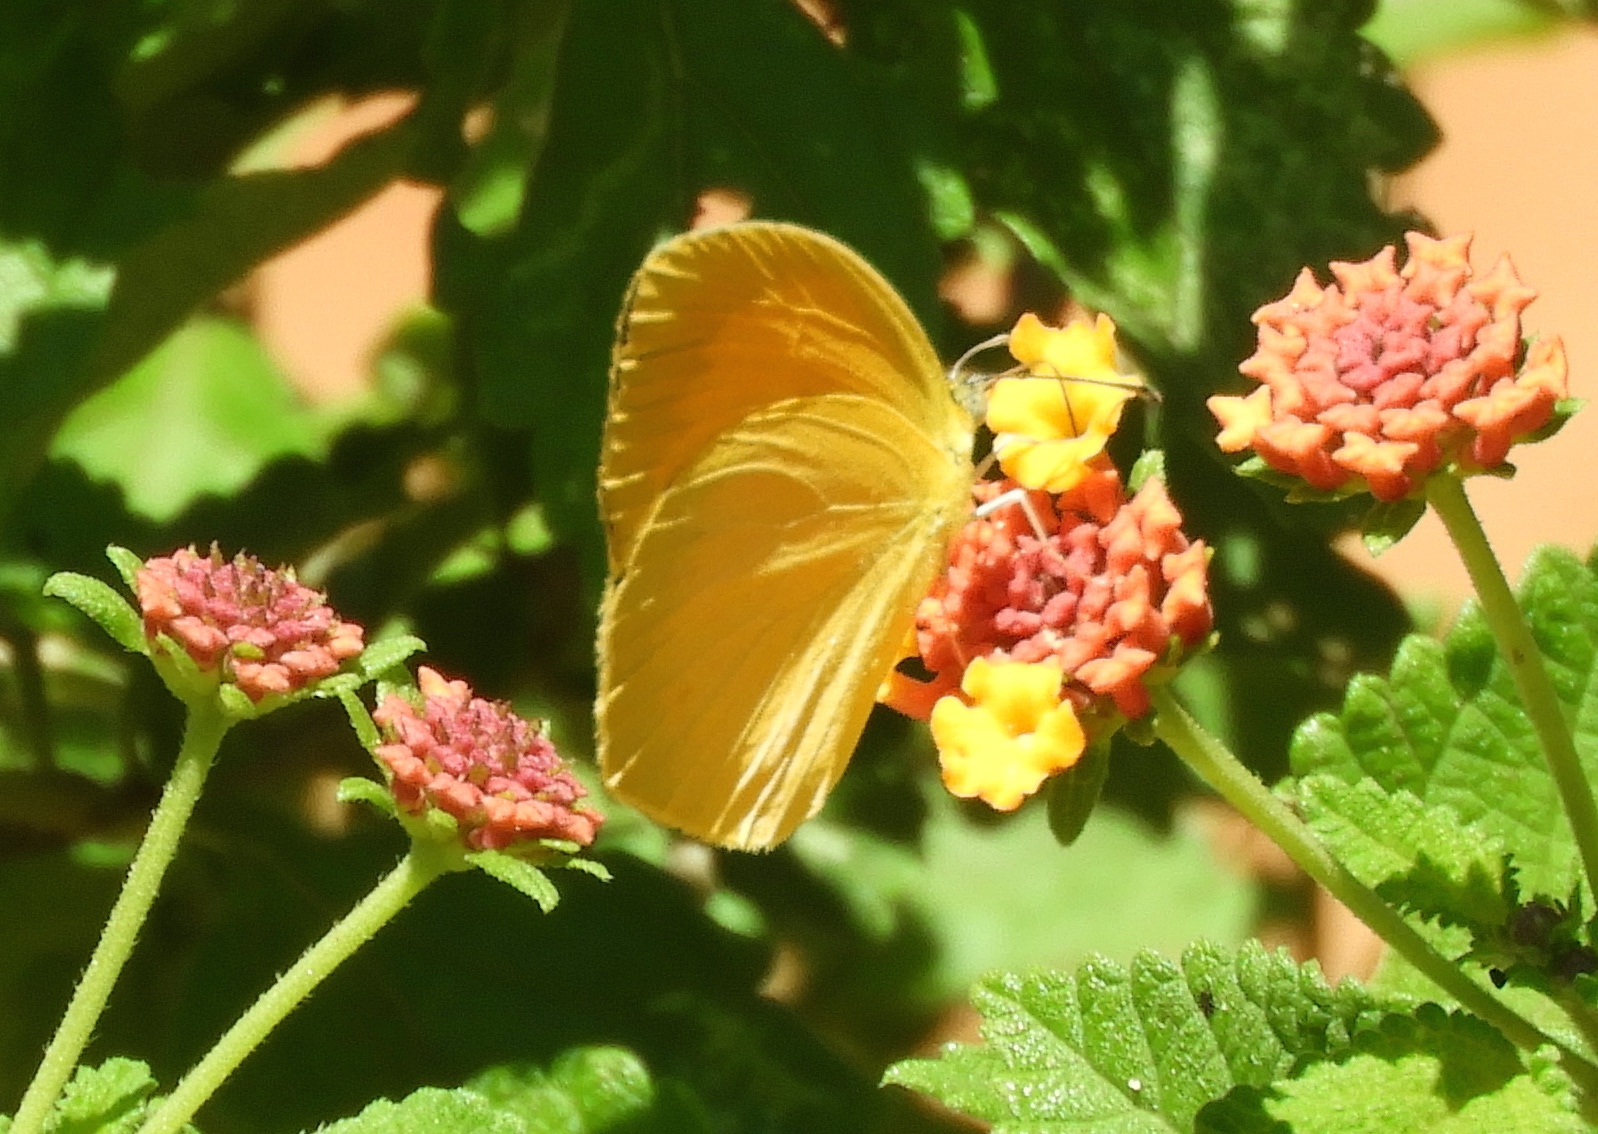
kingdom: Animalia
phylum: Arthropoda
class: Insecta
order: Lepidoptera
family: Pieridae
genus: Pyrisitia
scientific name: Pyrisitia proterpia
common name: Tailed orange
